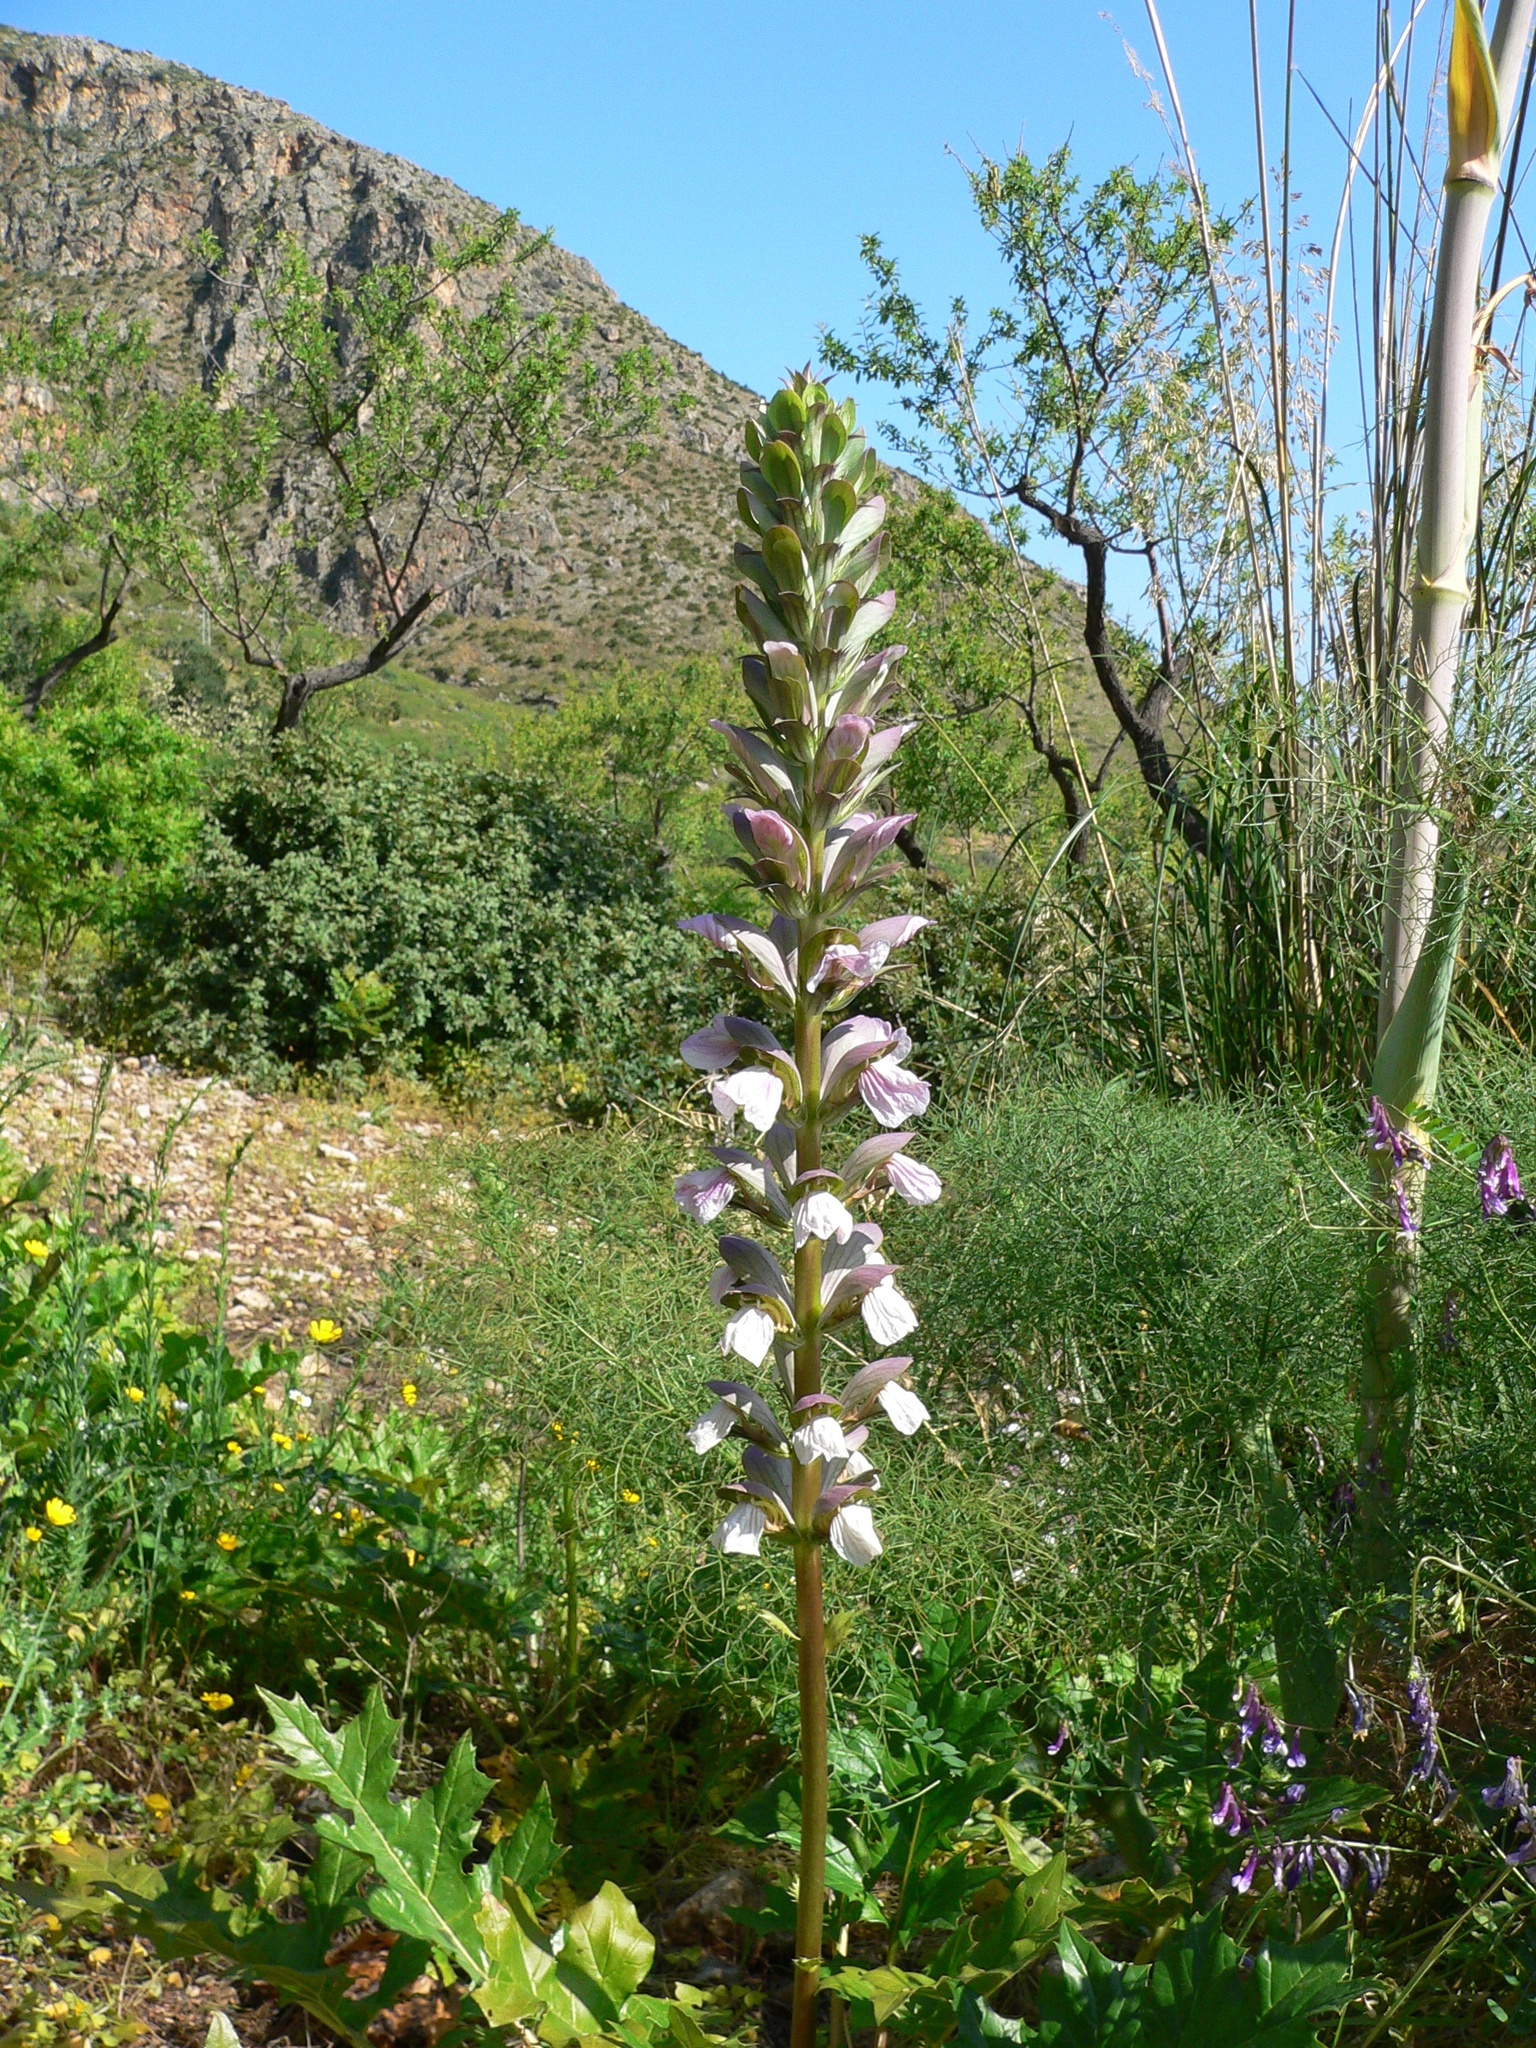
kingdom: Plantae
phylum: Tracheophyta
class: Magnoliopsida
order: Lamiales
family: Acanthaceae
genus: Acanthus
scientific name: Acanthus mollis
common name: Bear's-breech
